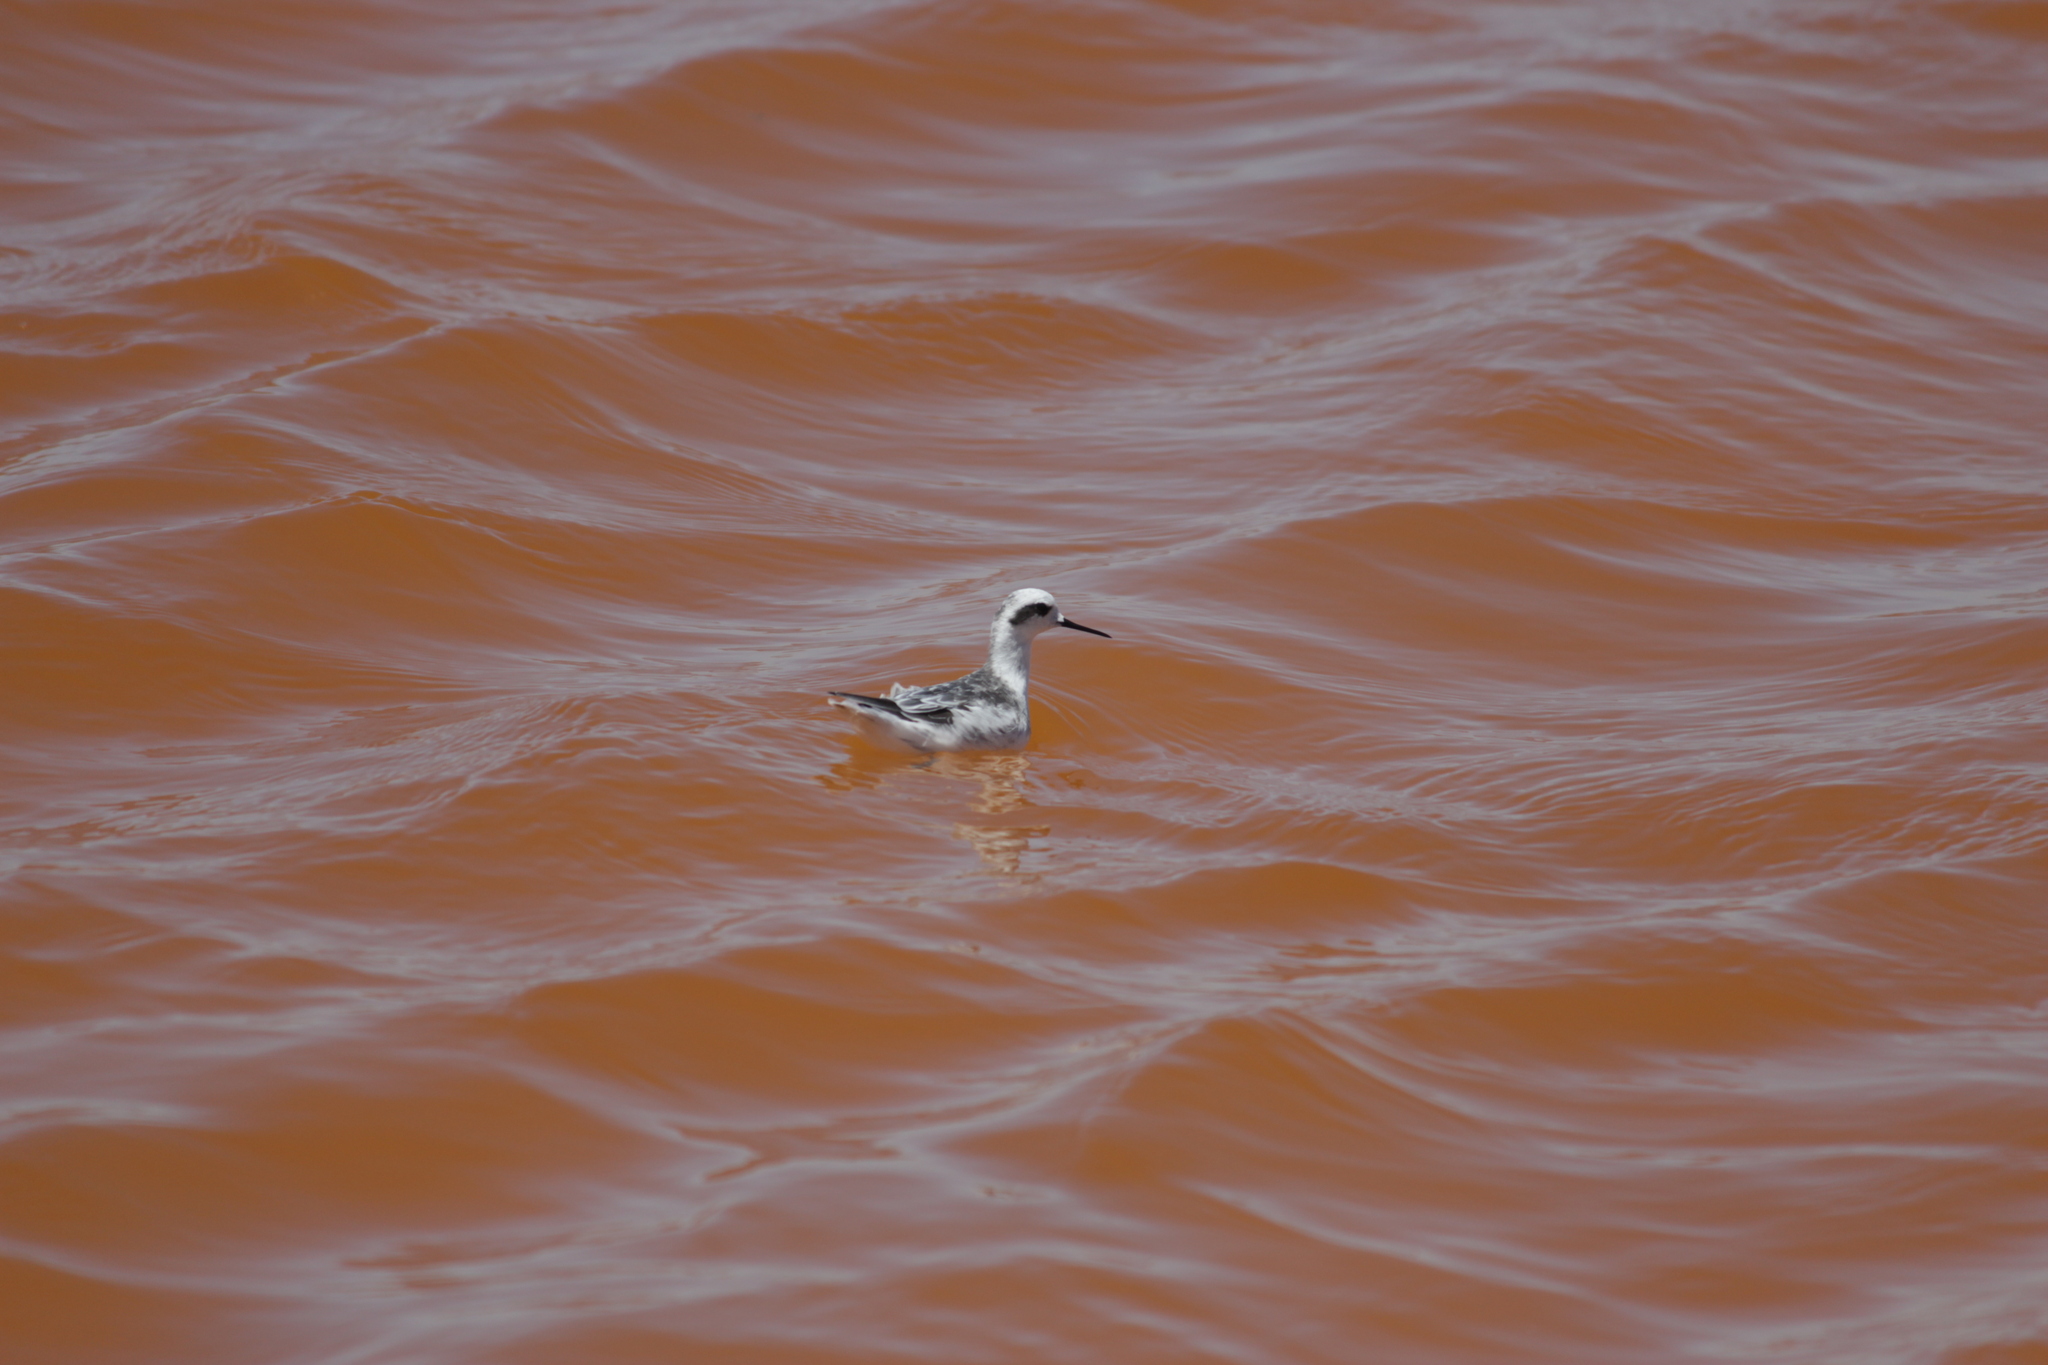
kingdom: Animalia
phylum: Chordata
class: Aves
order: Charadriiformes
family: Scolopacidae
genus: Phalaropus
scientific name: Phalaropus lobatus
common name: Red-necked phalarope
